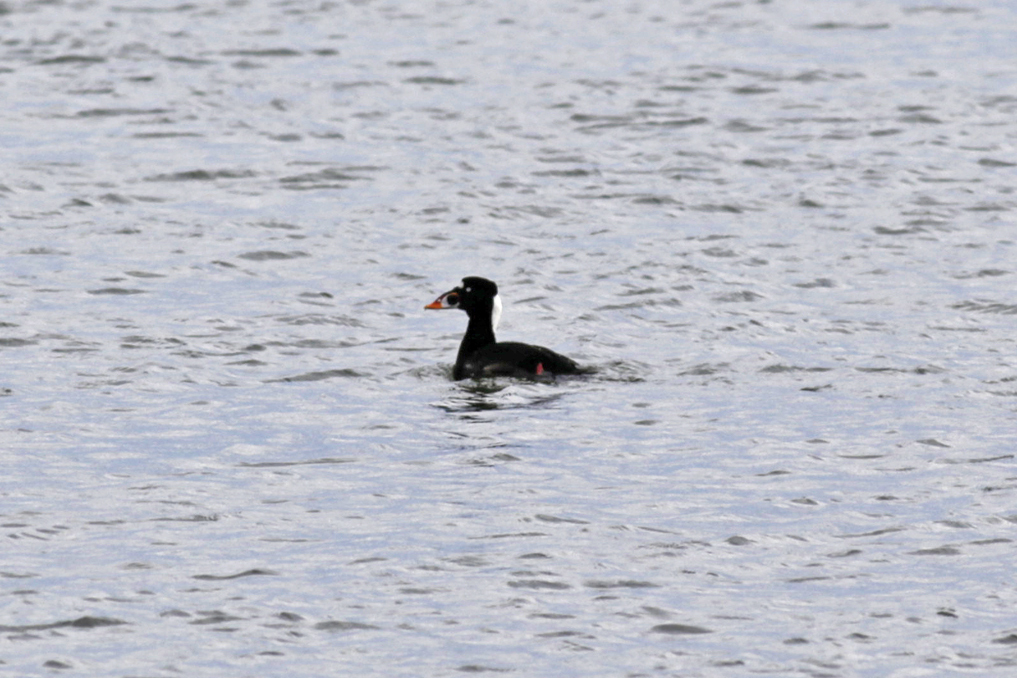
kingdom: Animalia
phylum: Chordata
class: Aves
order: Anseriformes
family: Anatidae
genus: Melanitta
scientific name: Melanitta perspicillata
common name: Surf scoter
